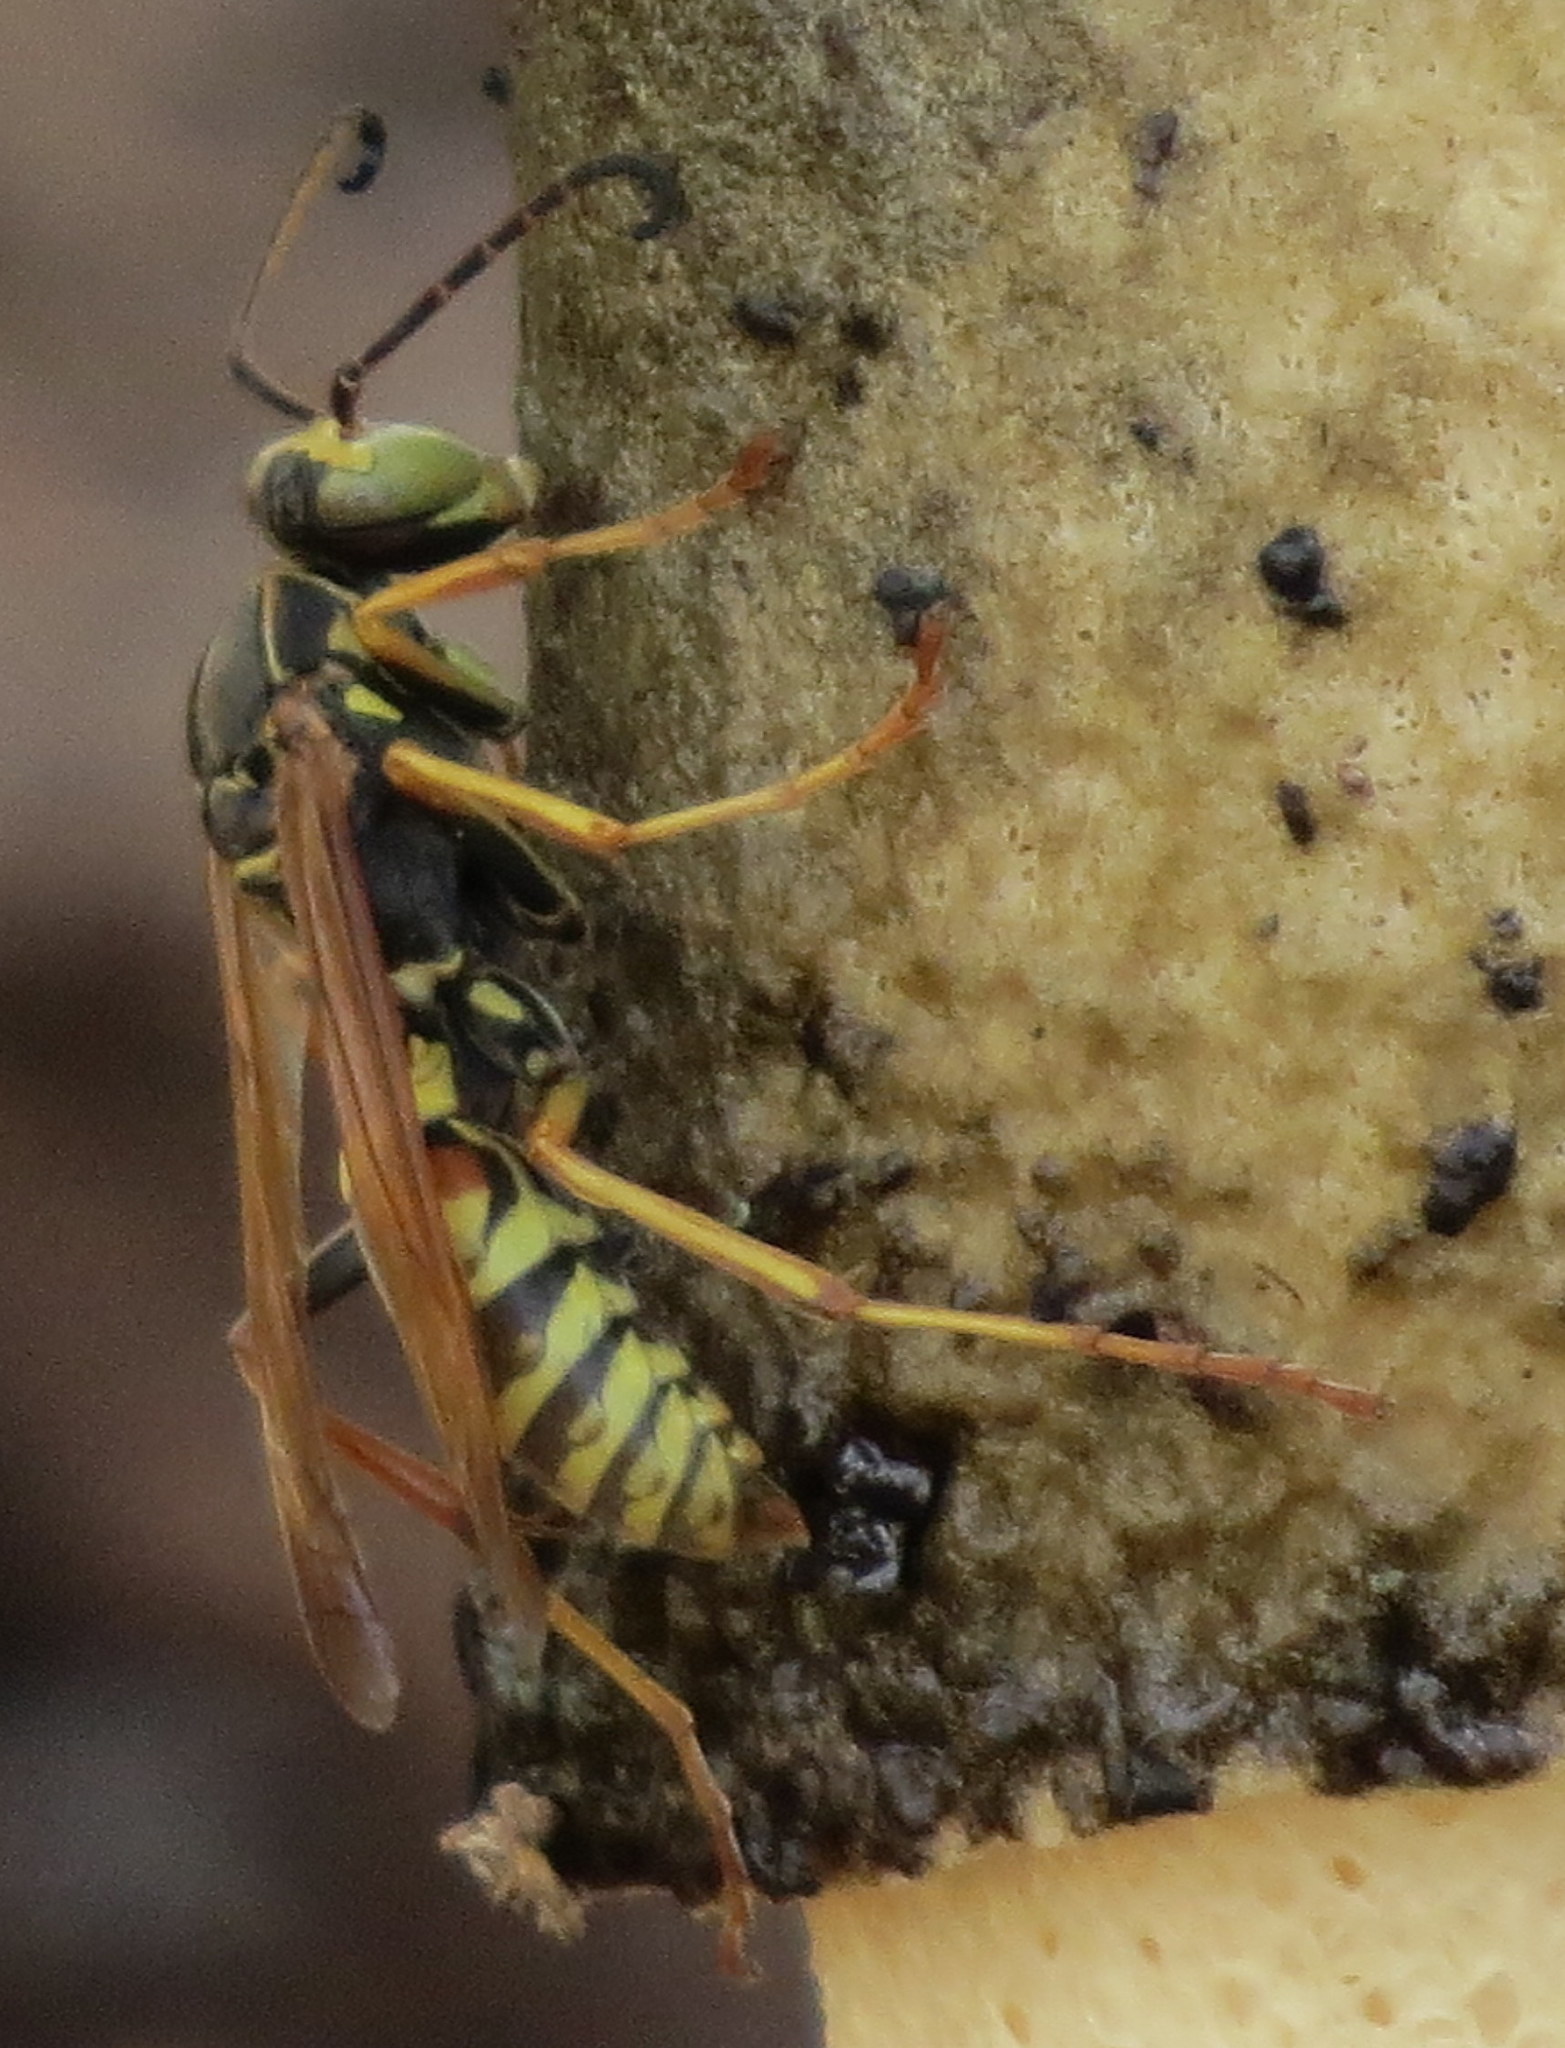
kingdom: Animalia
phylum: Arthropoda
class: Insecta
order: Hymenoptera
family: Eumenidae
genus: Polistes
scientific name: Polistes fuscatus
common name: Dark paper wasp
